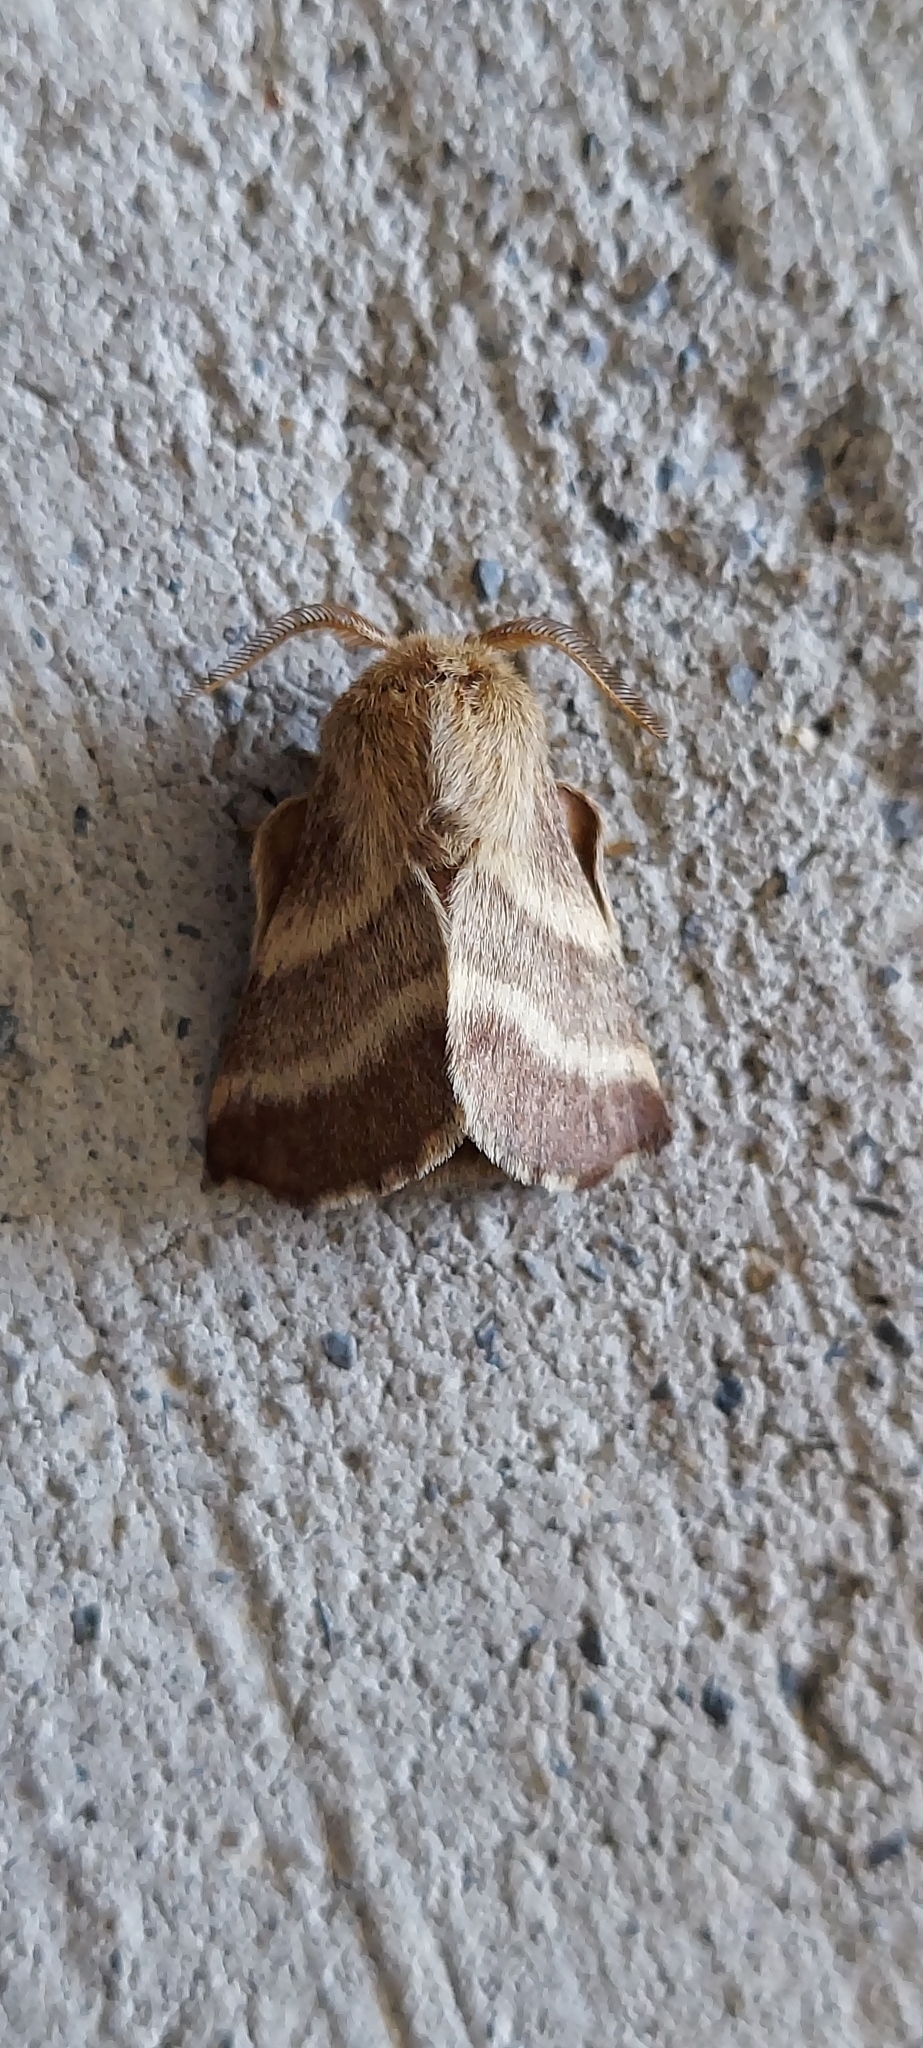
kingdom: Animalia
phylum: Arthropoda
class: Insecta
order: Lepidoptera
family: Lasiocampidae
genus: Malacosoma
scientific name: Malacosoma americana
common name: Eastern tent caterpillar moth
